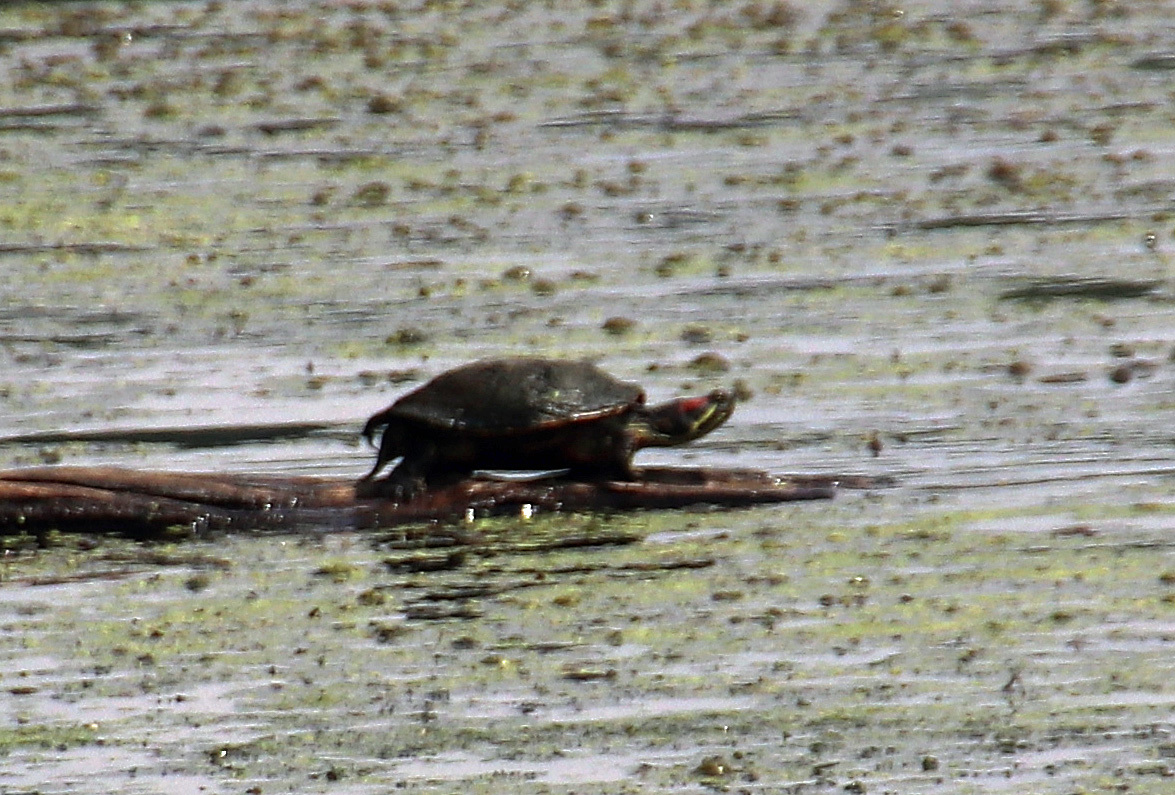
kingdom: Animalia
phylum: Chordata
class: Testudines
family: Emydidae
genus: Trachemys
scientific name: Trachemys scripta
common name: Slider
